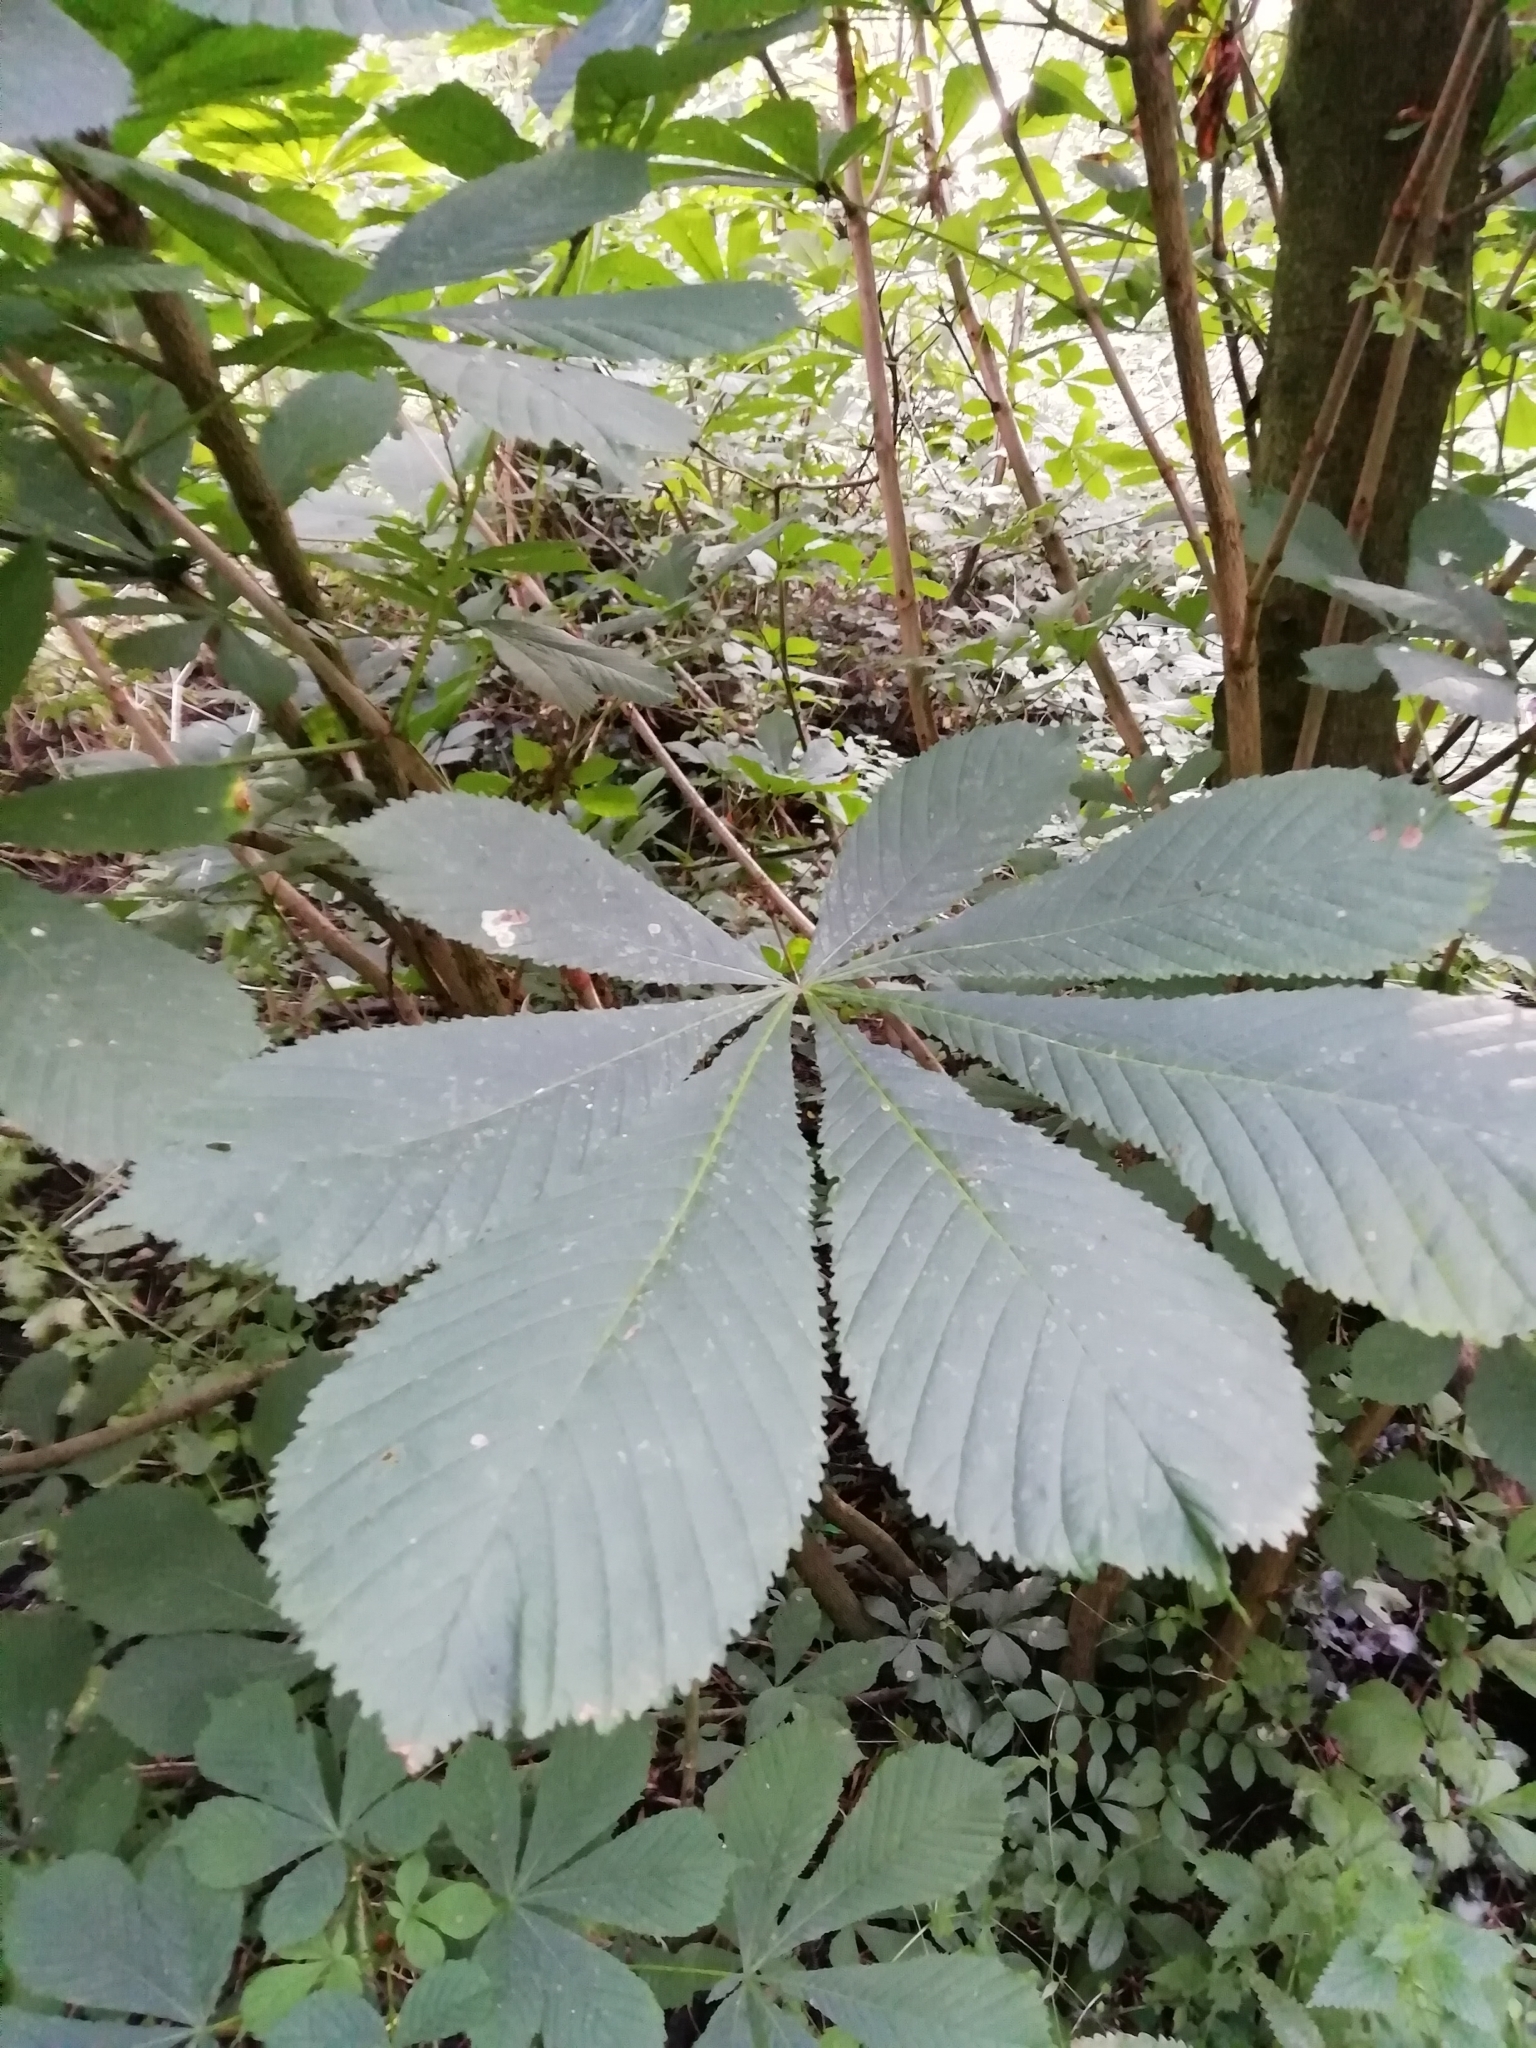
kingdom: Plantae
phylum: Tracheophyta
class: Magnoliopsida
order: Sapindales
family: Sapindaceae
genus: Aesculus
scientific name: Aesculus hippocastanum
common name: Horse-chestnut
